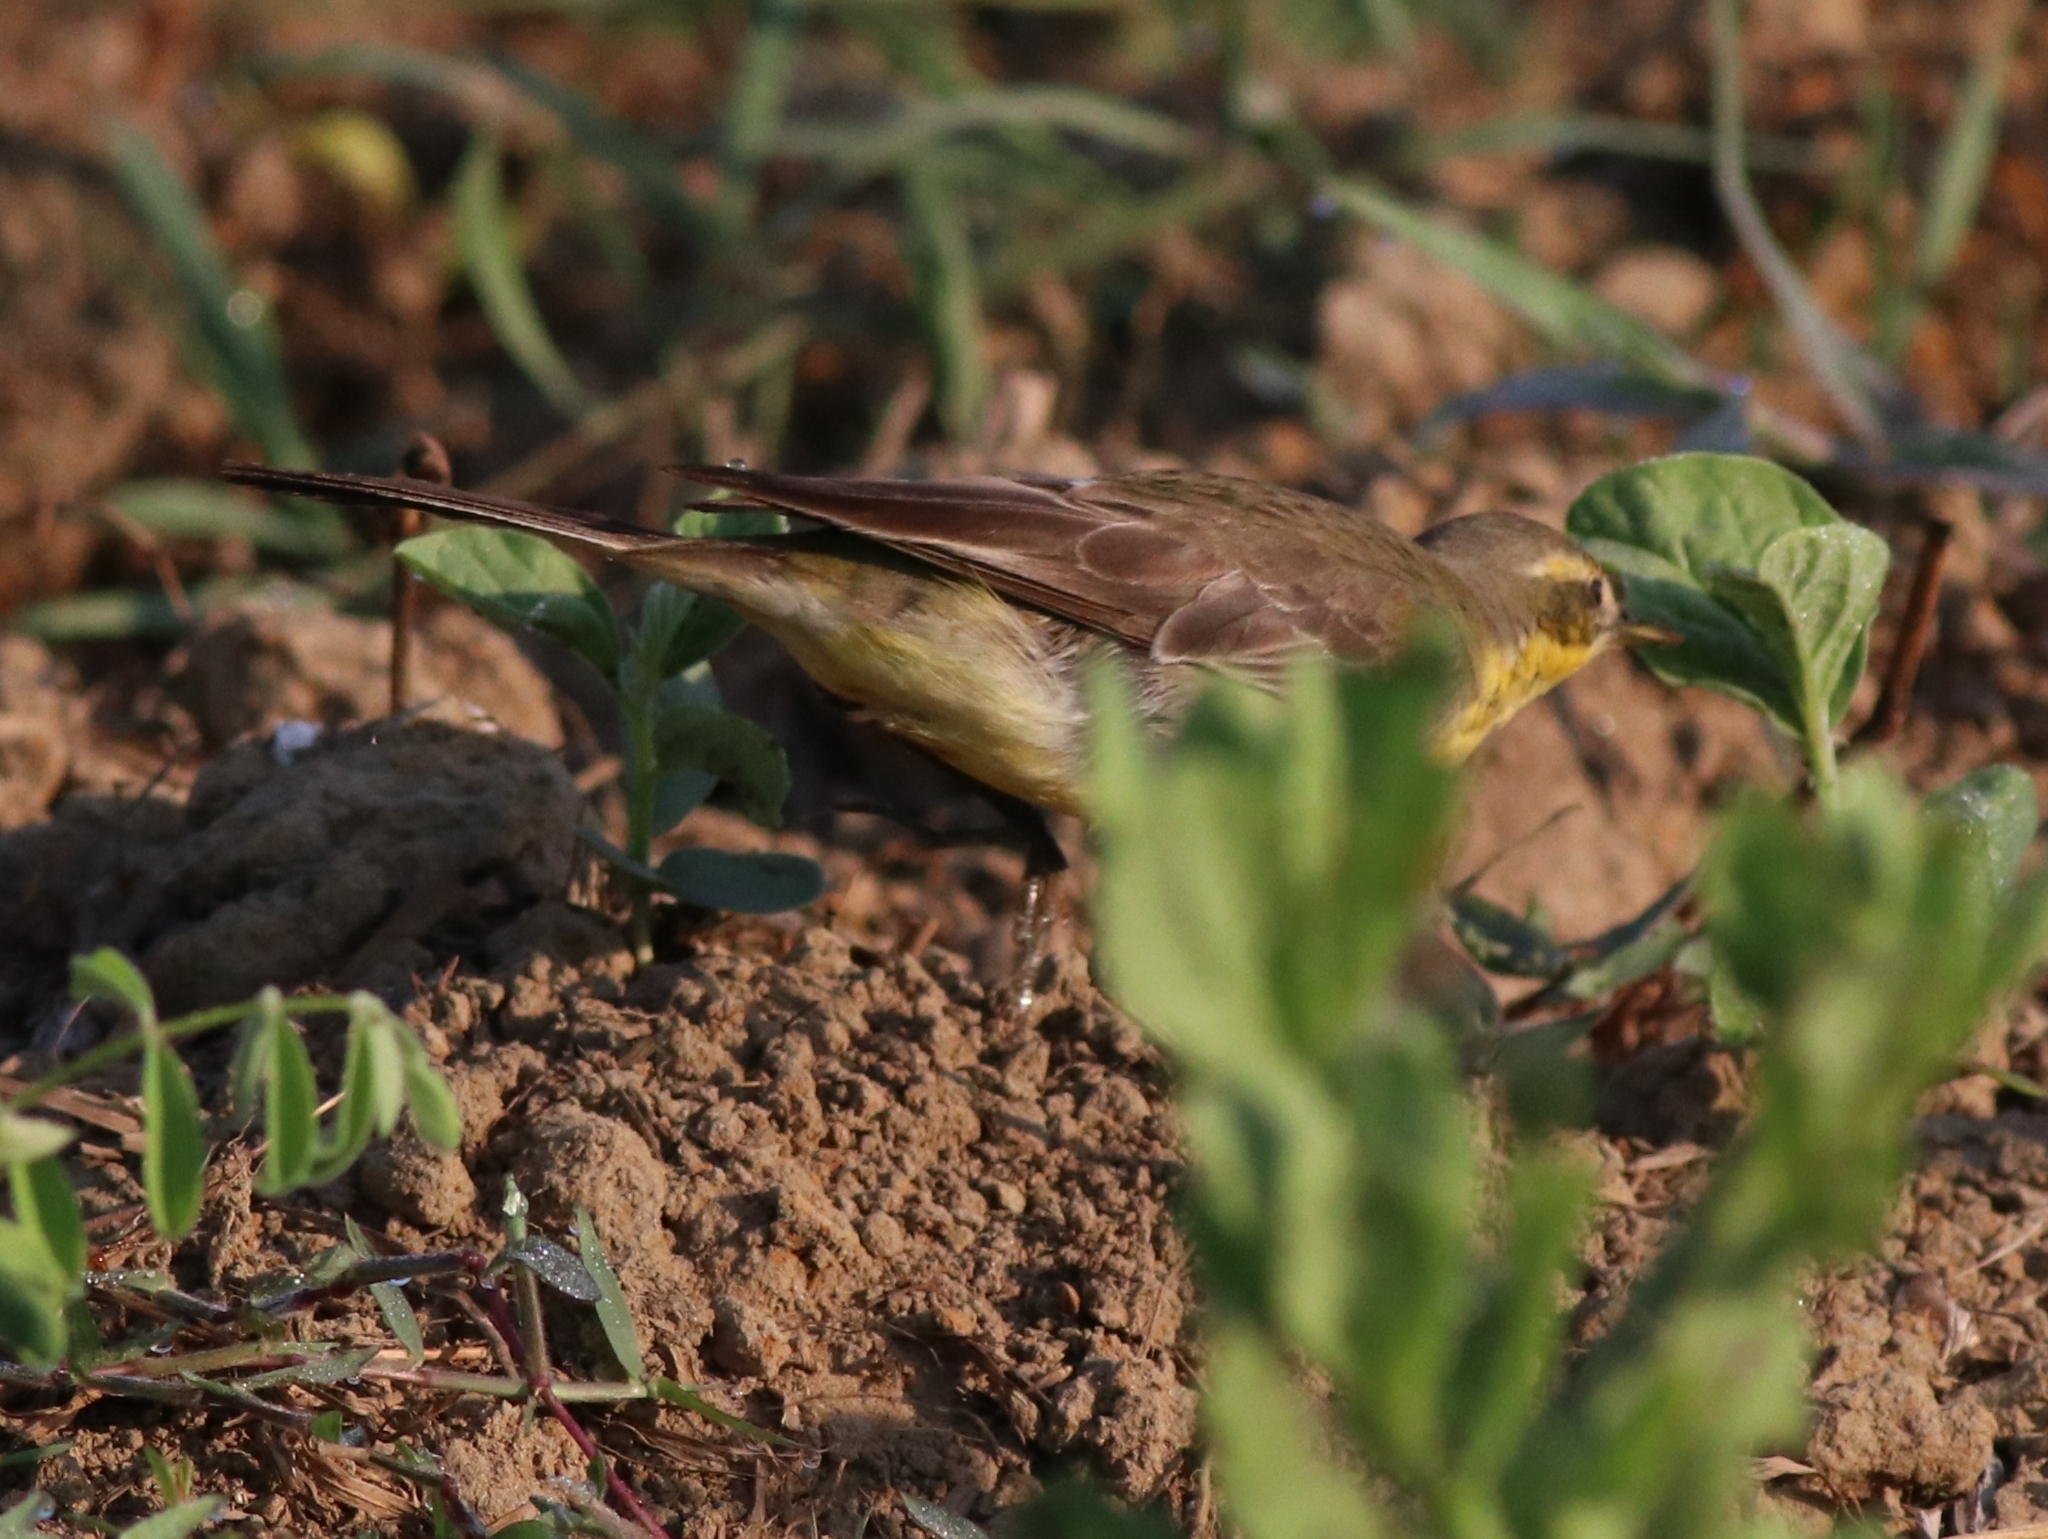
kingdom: Animalia
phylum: Chordata
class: Aves
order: Passeriformes
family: Motacillidae
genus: Motacilla
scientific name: Motacilla flava
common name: Western yellow wagtail
